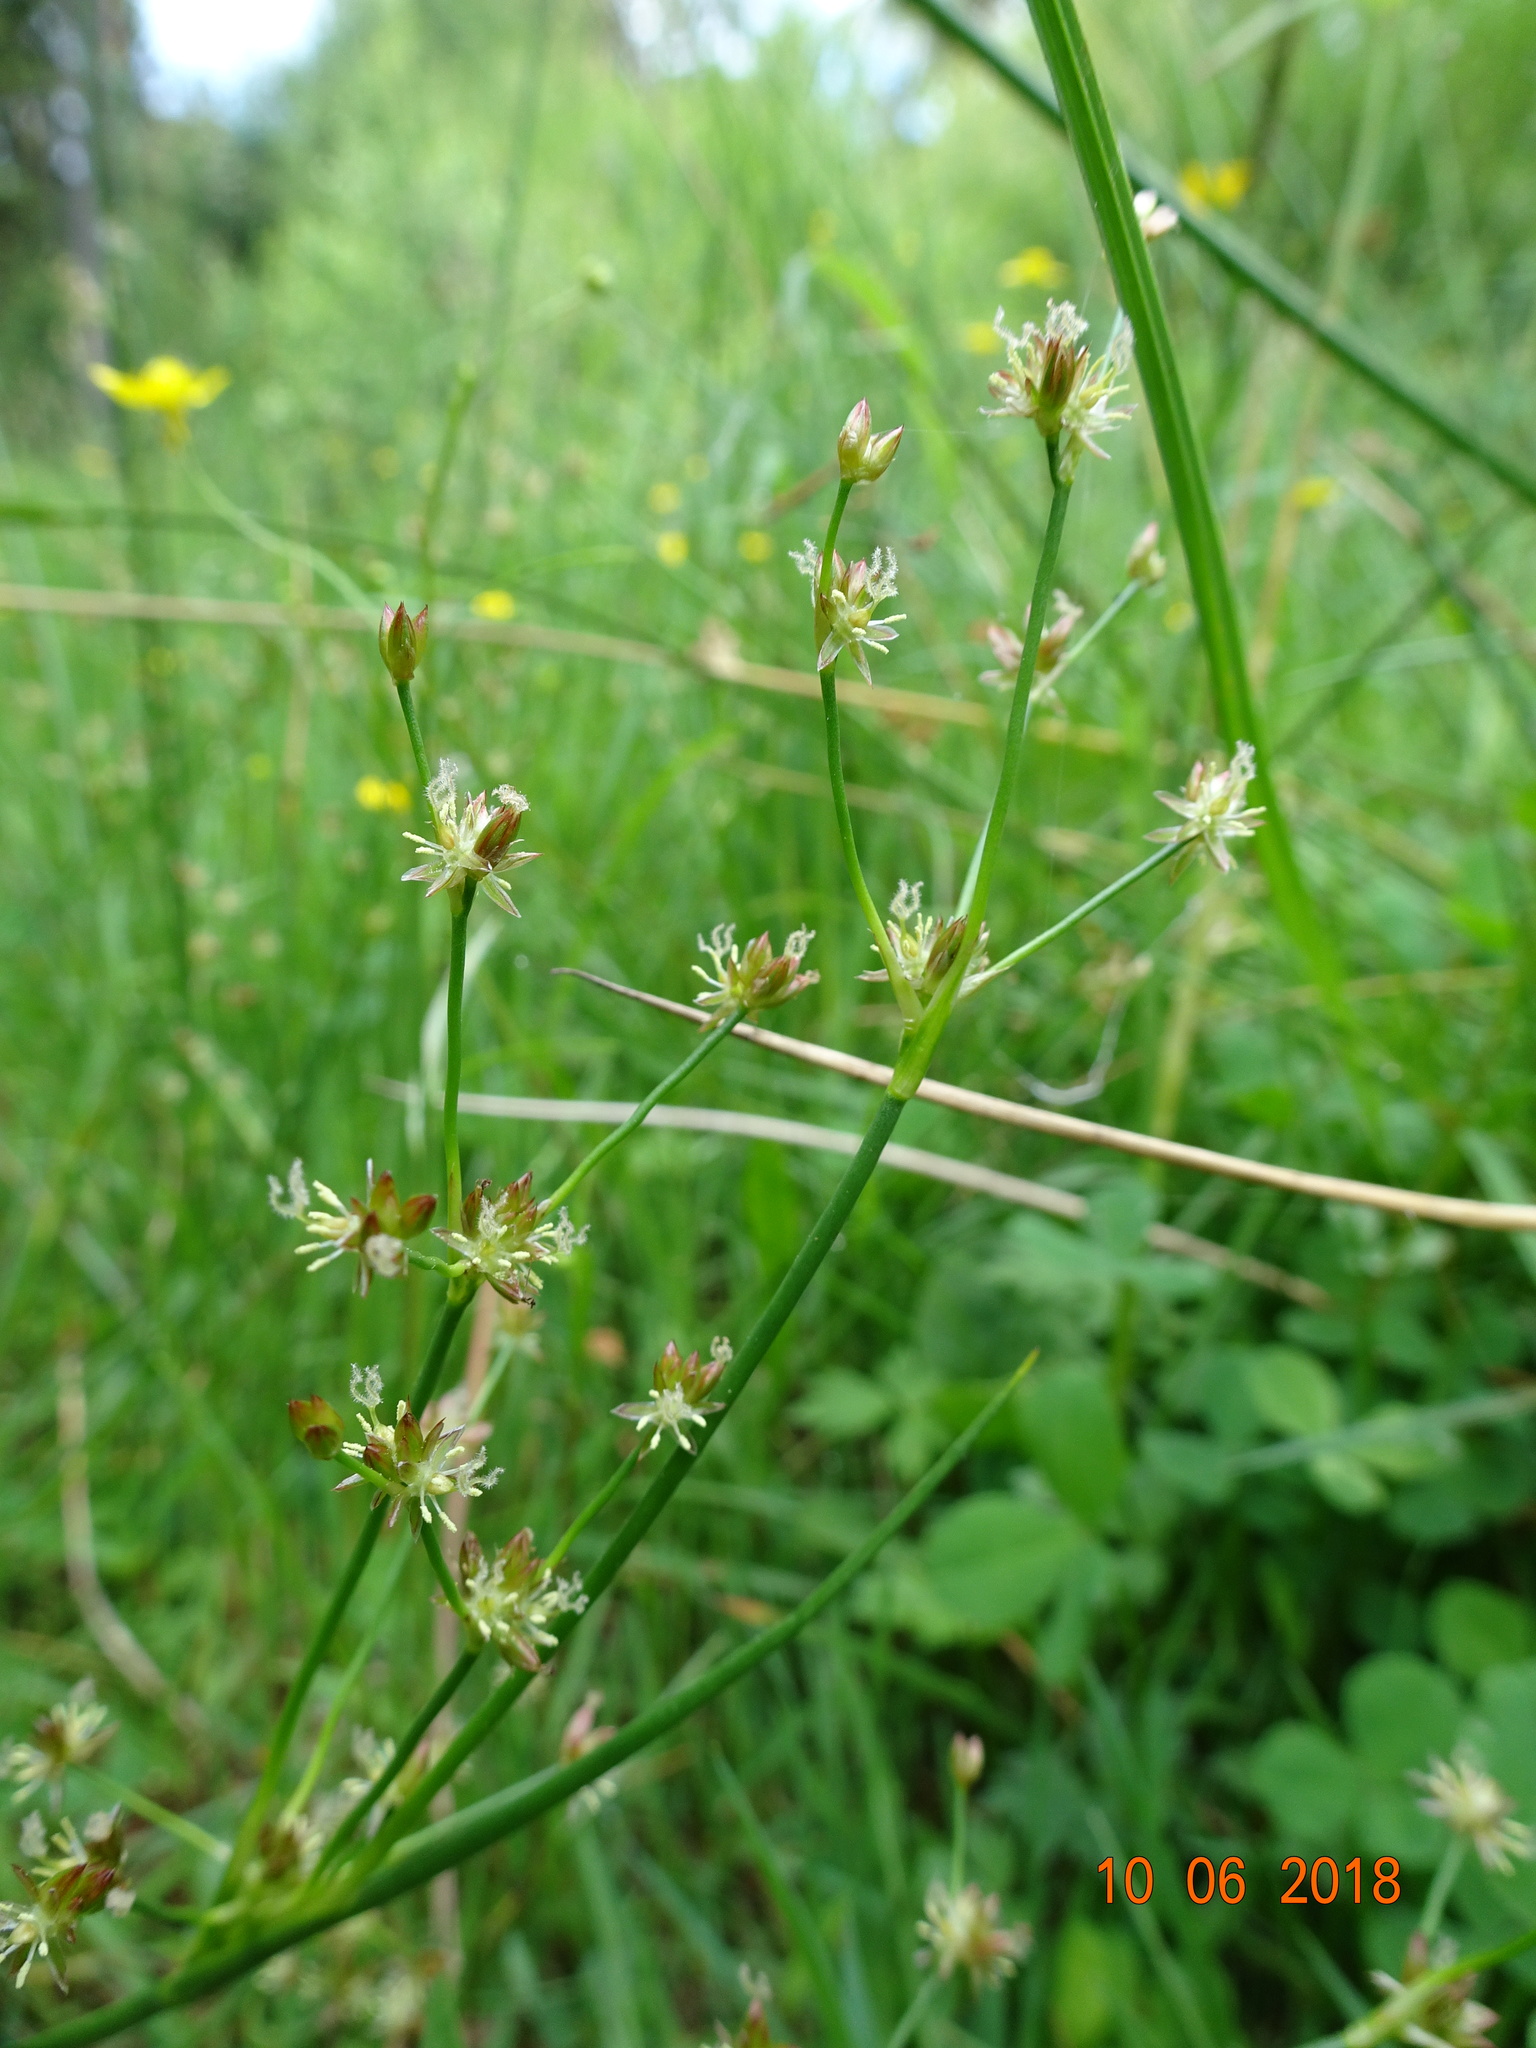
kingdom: Plantae
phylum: Tracheophyta
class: Liliopsida
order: Poales
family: Juncaceae
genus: Juncus
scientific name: Juncus articulatus
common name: Jointed rush
